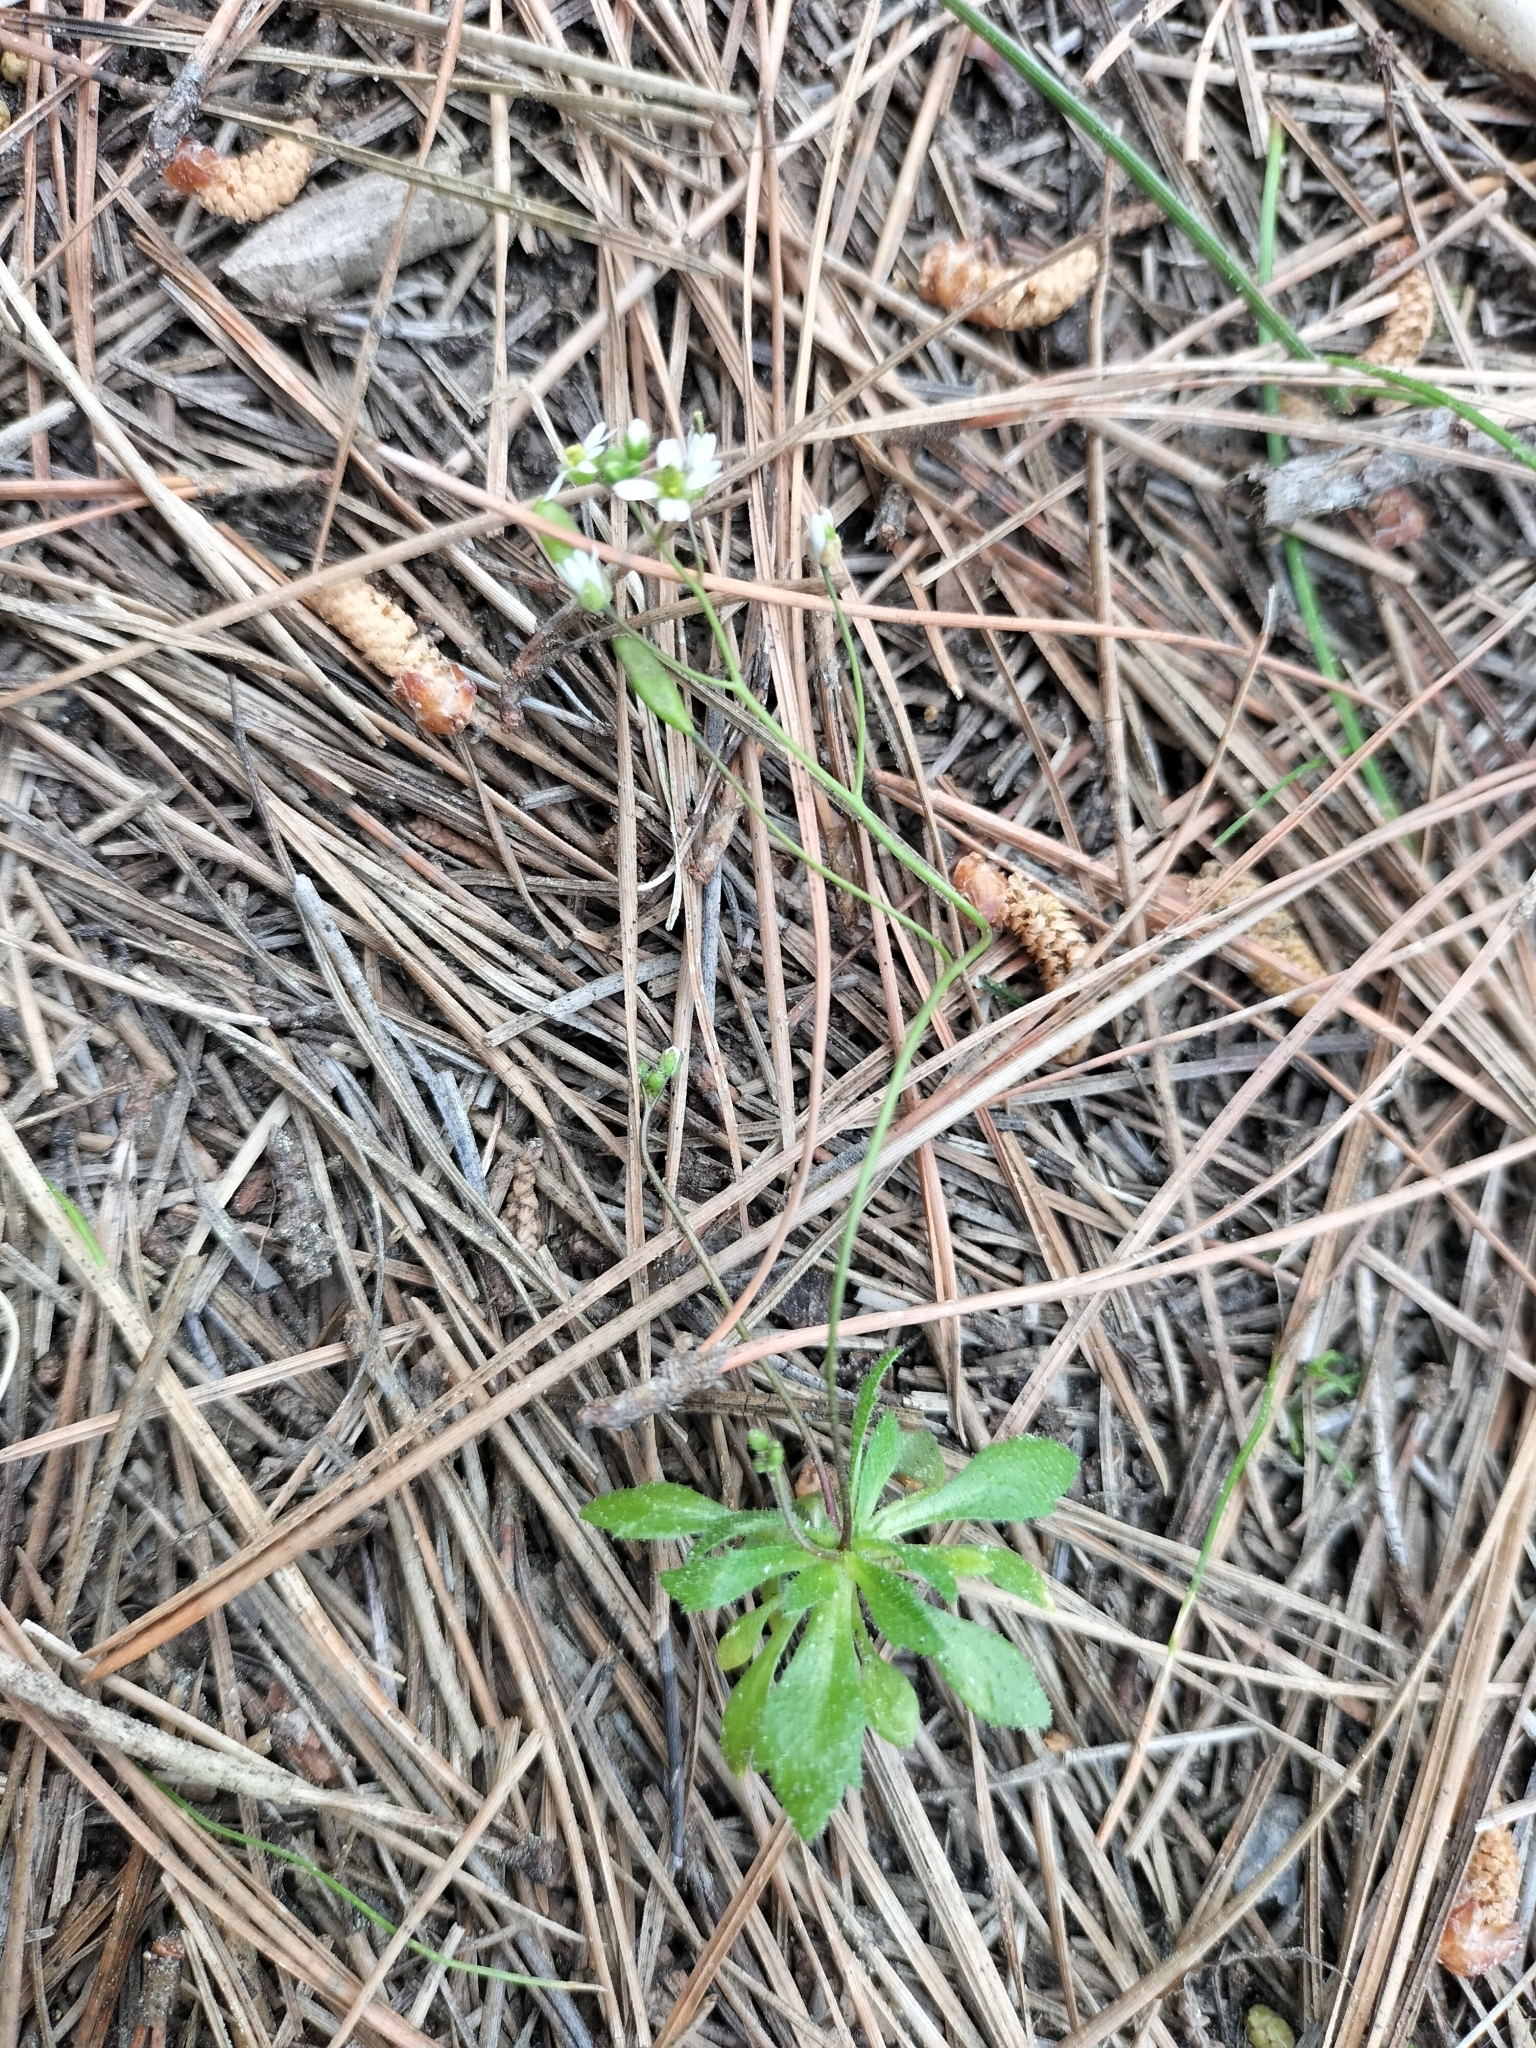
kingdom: Plantae
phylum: Tracheophyta
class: Magnoliopsida
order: Brassicales
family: Brassicaceae
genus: Draba
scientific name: Draba verna
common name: Spring draba
